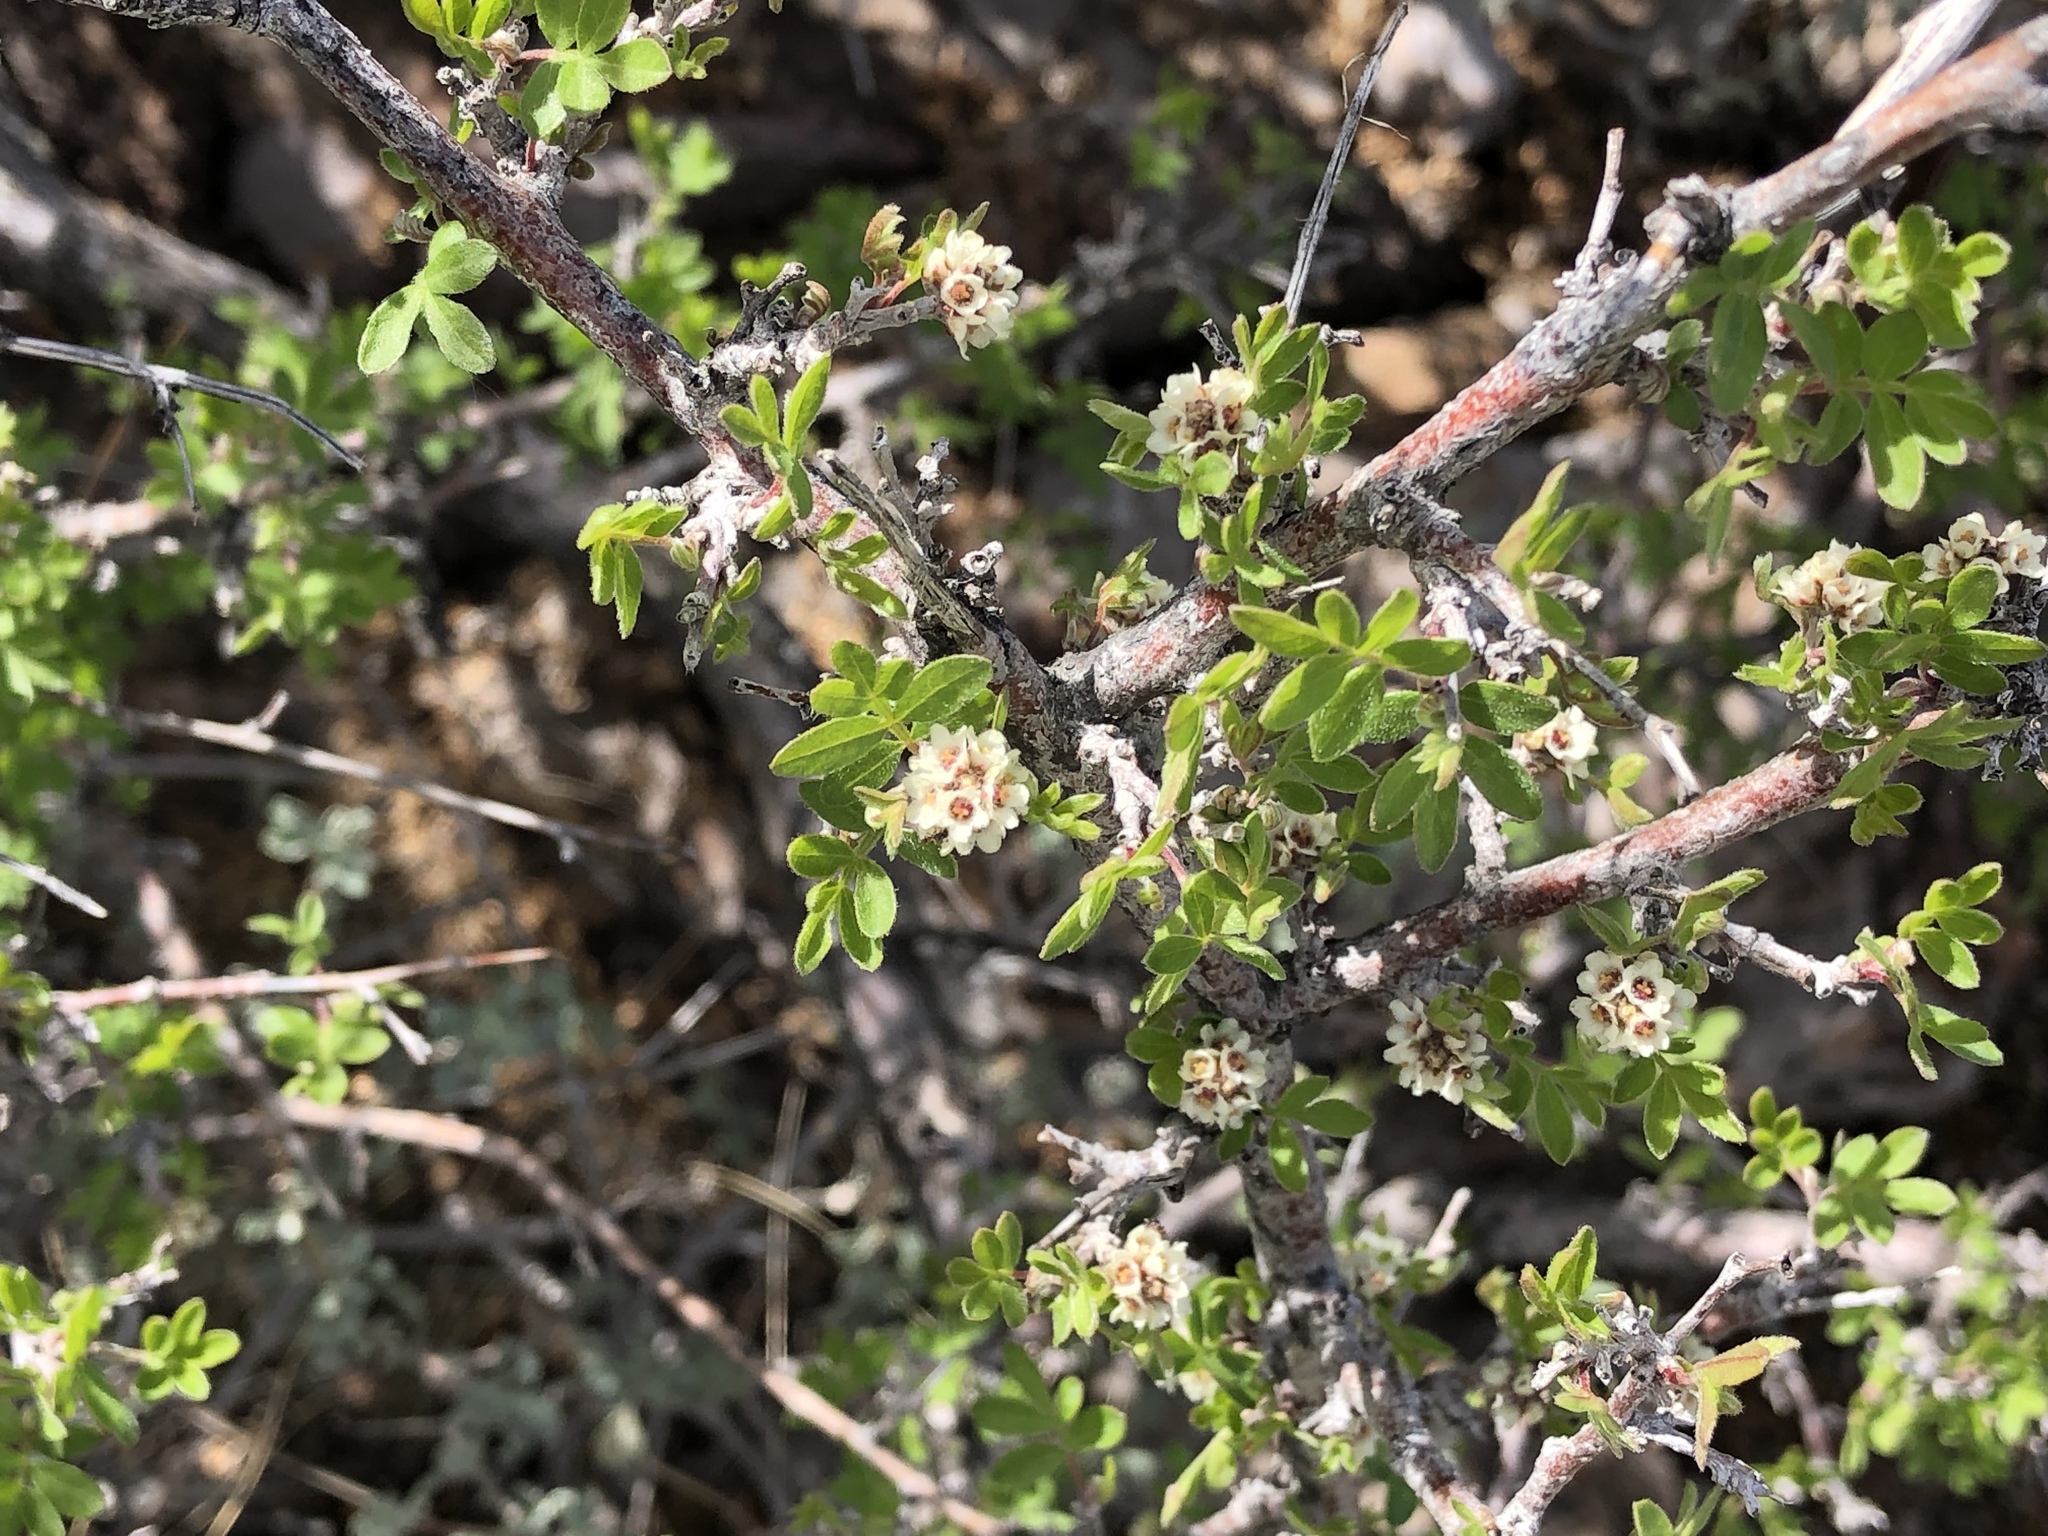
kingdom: Plantae
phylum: Tracheophyta
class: Magnoliopsida
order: Sapindales
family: Anacardiaceae
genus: Rhus
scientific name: Rhus microphylla
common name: Desert sumac
